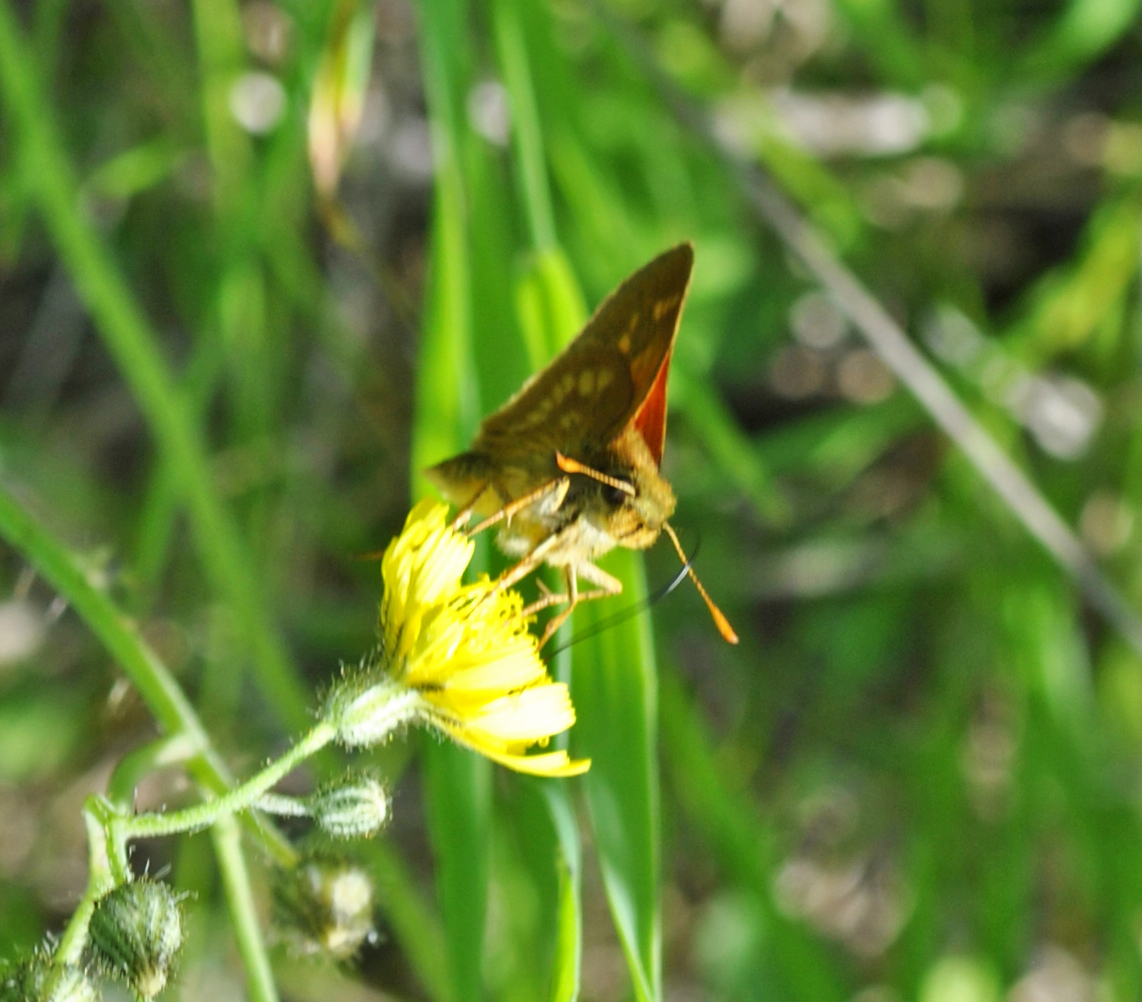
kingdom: Animalia
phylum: Arthropoda
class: Insecta
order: Lepidoptera
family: Hesperiidae
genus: Polites
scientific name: Polites mystic
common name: Long dash
